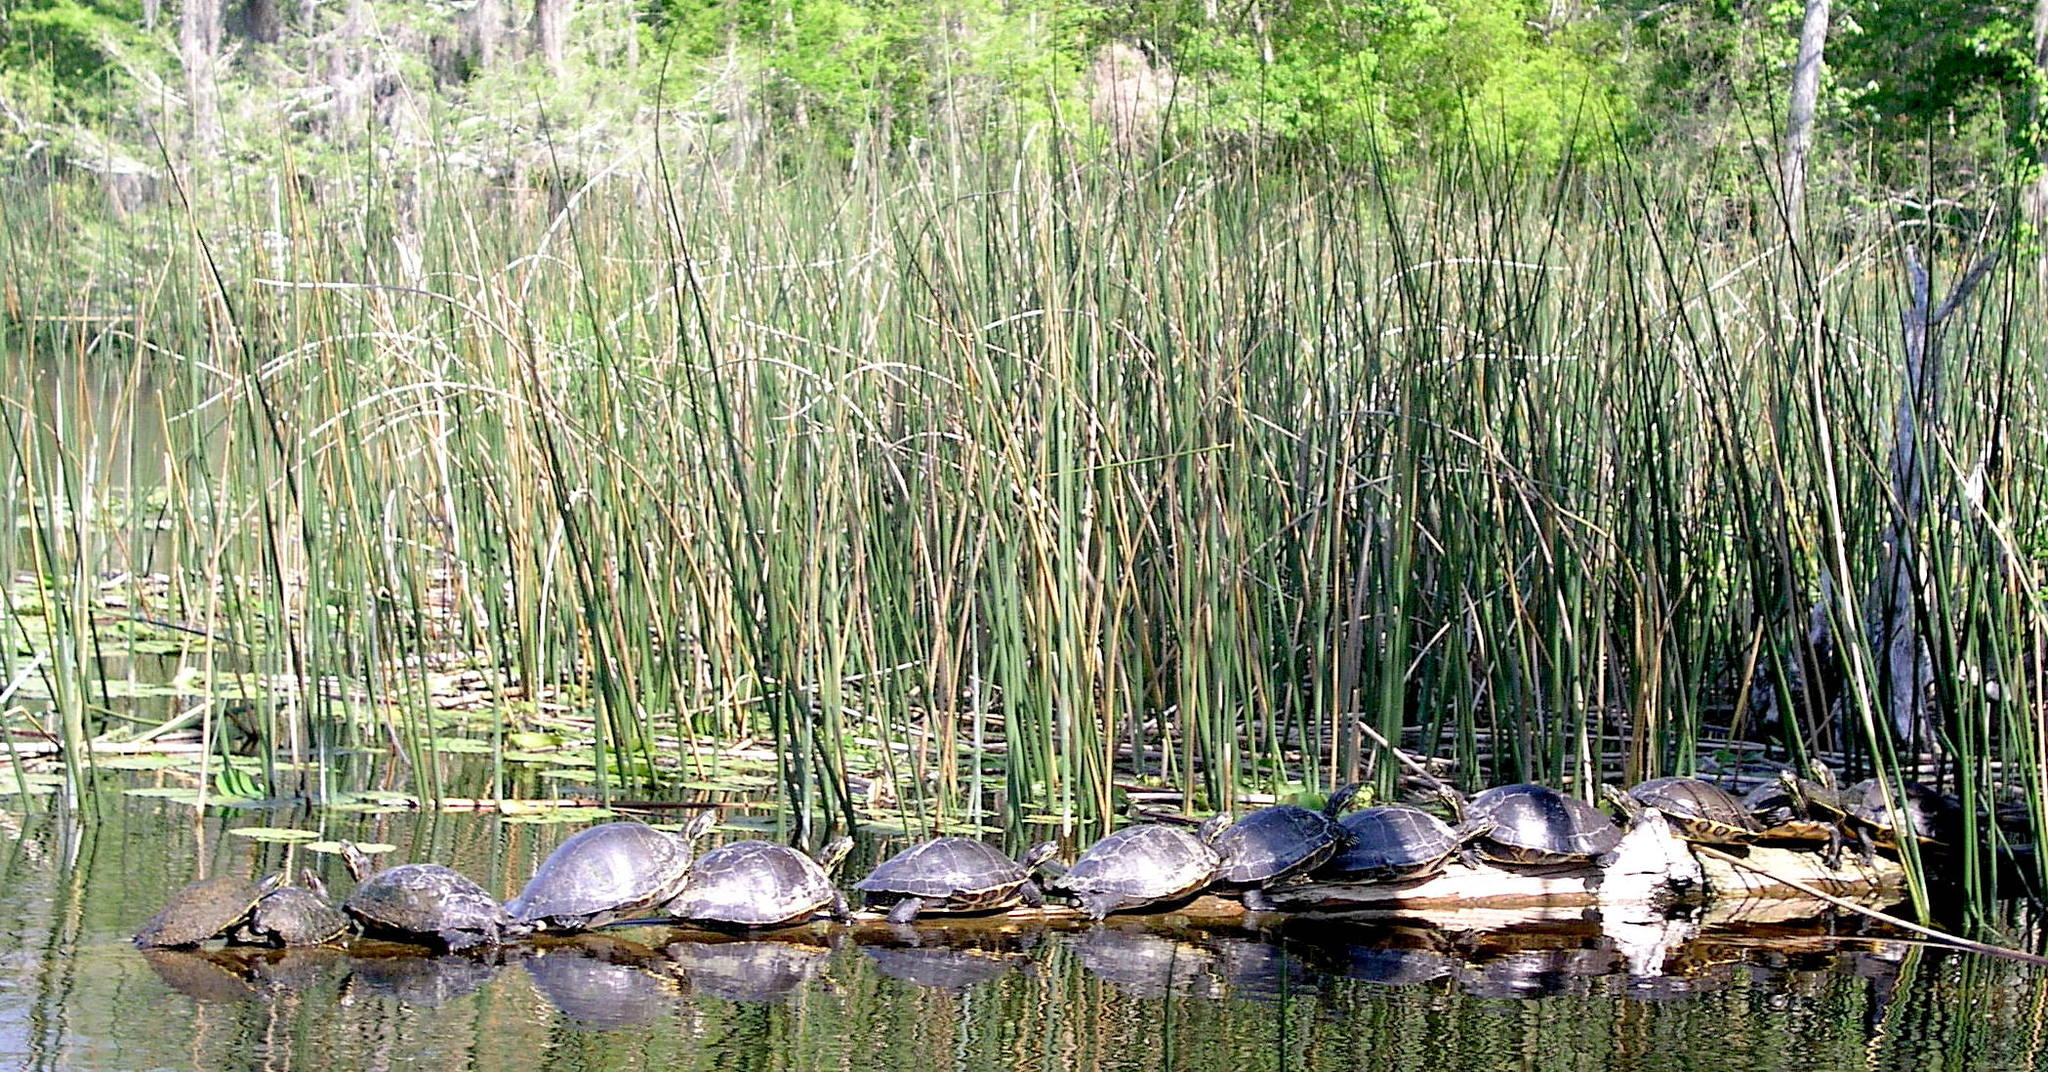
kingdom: Animalia
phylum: Chordata
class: Testudines
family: Emydidae
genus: Pseudemys
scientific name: Pseudemys concinna
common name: Eastern river cooter
